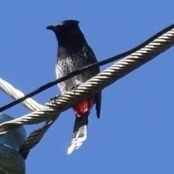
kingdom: Animalia
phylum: Chordata
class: Aves
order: Passeriformes
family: Pycnonotidae
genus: Pycnonotus
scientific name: Pycnonotus cafer
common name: Red-vented bulbul
